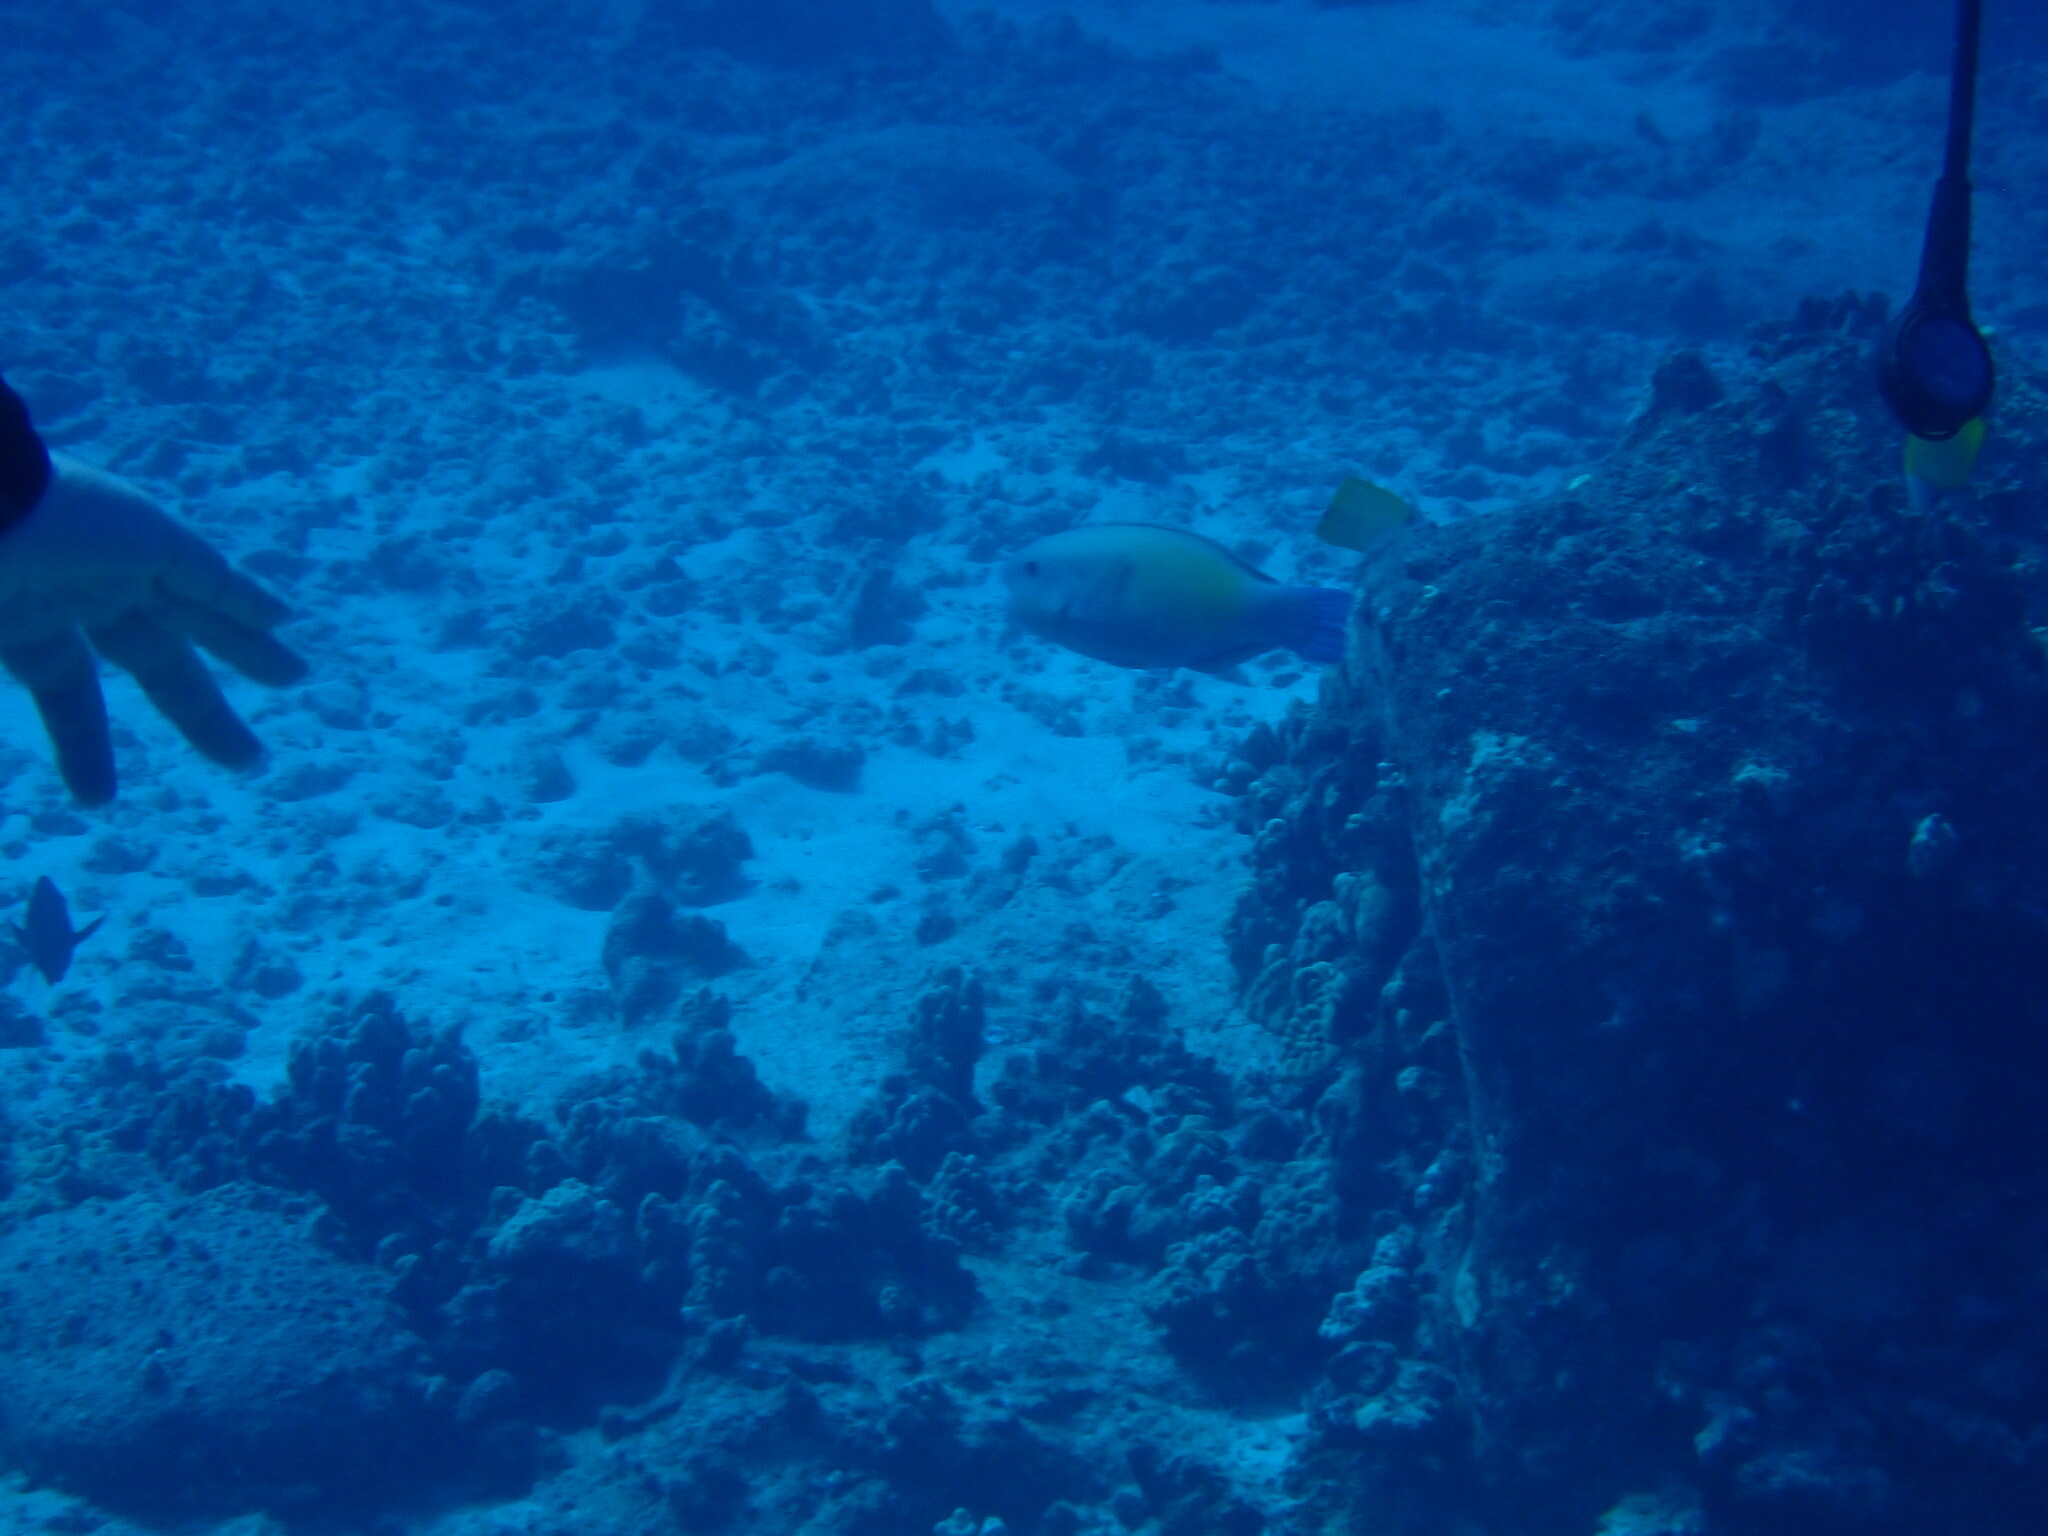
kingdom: Animalia
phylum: Chordata
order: Perciformes
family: Scaridae
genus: Chlorurus
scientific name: Chlorurus spilurus
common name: Bullethead parrotfish
